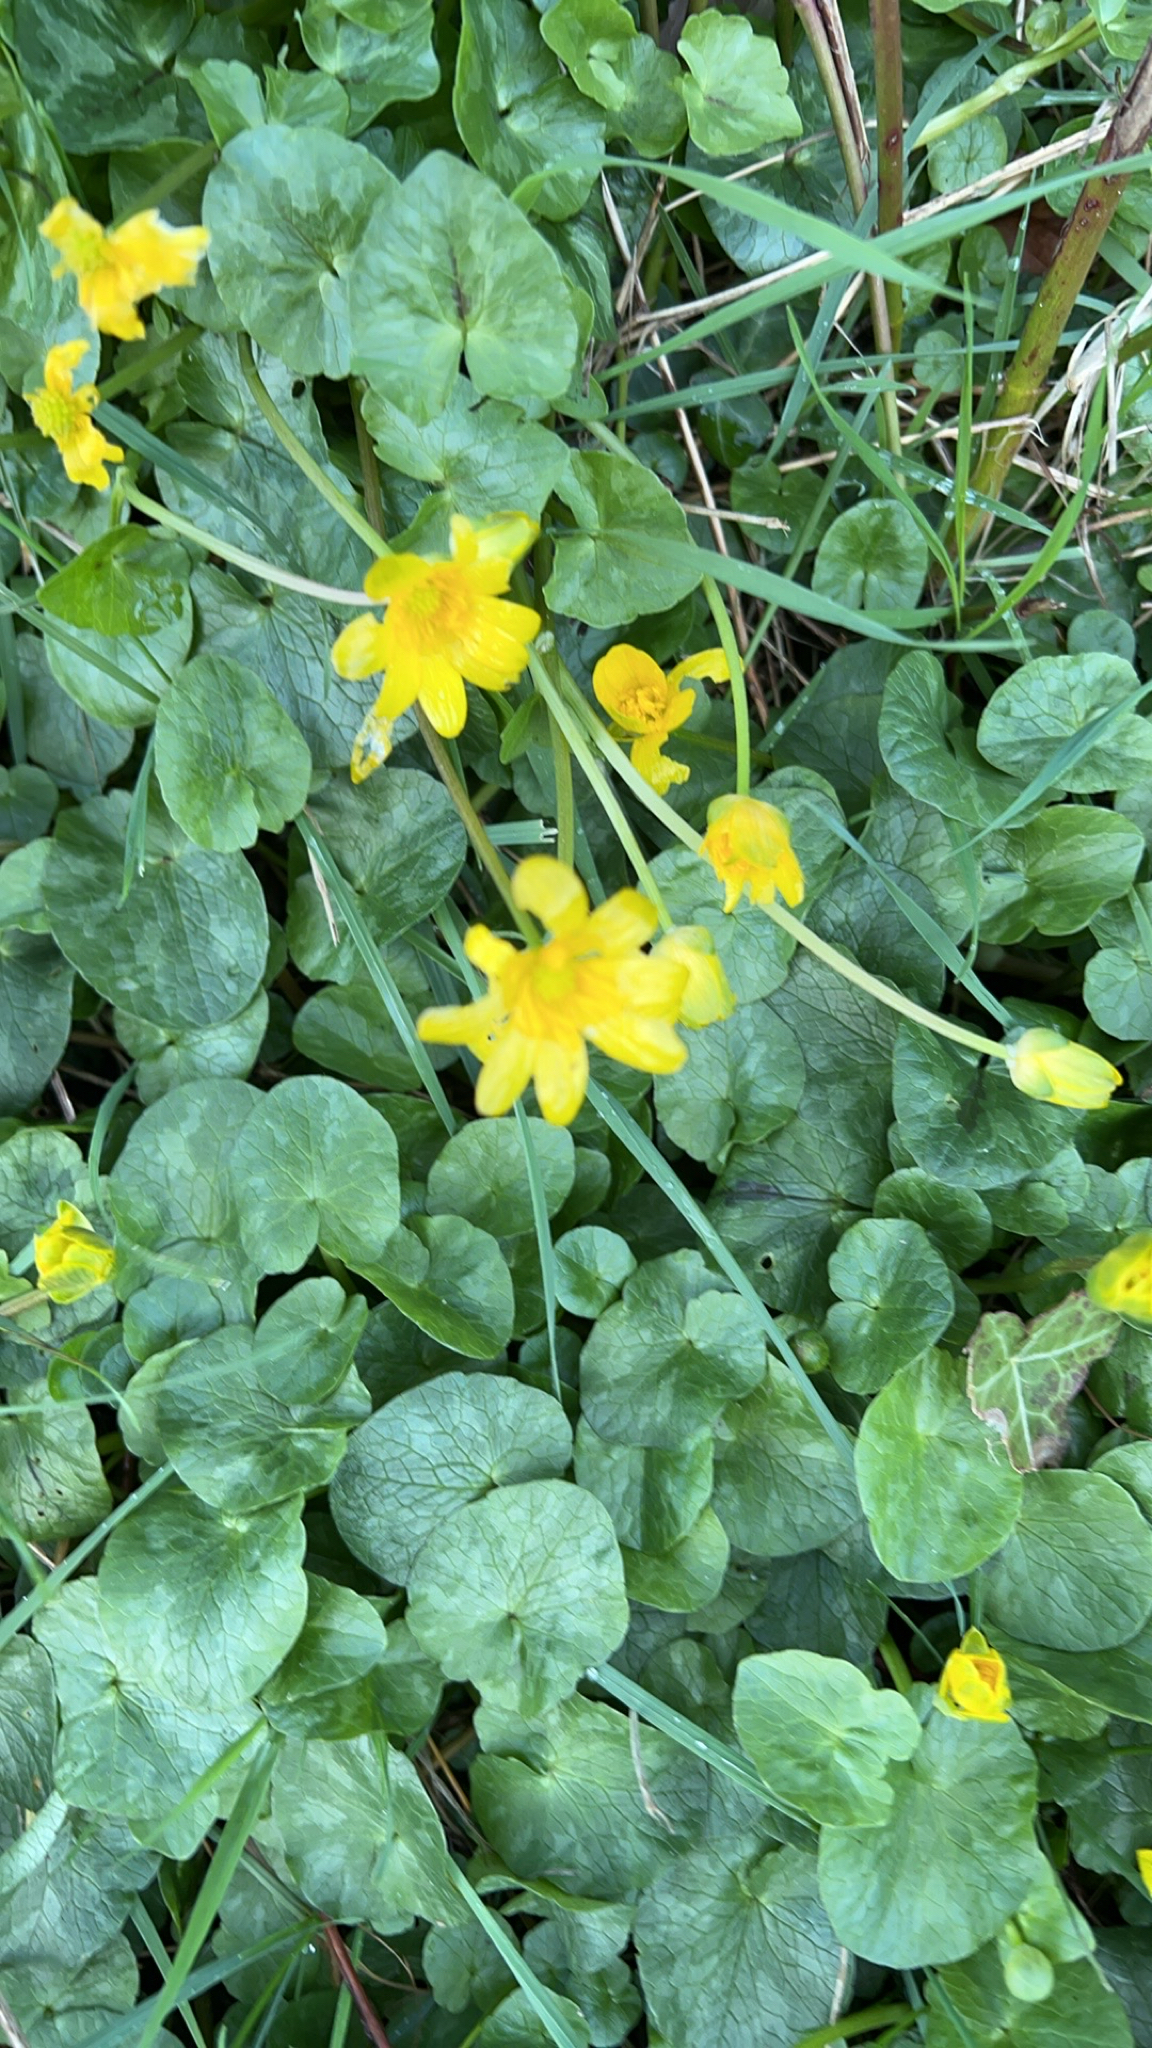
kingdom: Plantae
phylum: Tracheophyta
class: Magnoliopsida
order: Ranunculales
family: Ranunculaceae
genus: Ficaria
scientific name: Ficaria verna
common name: Lesser celandine
